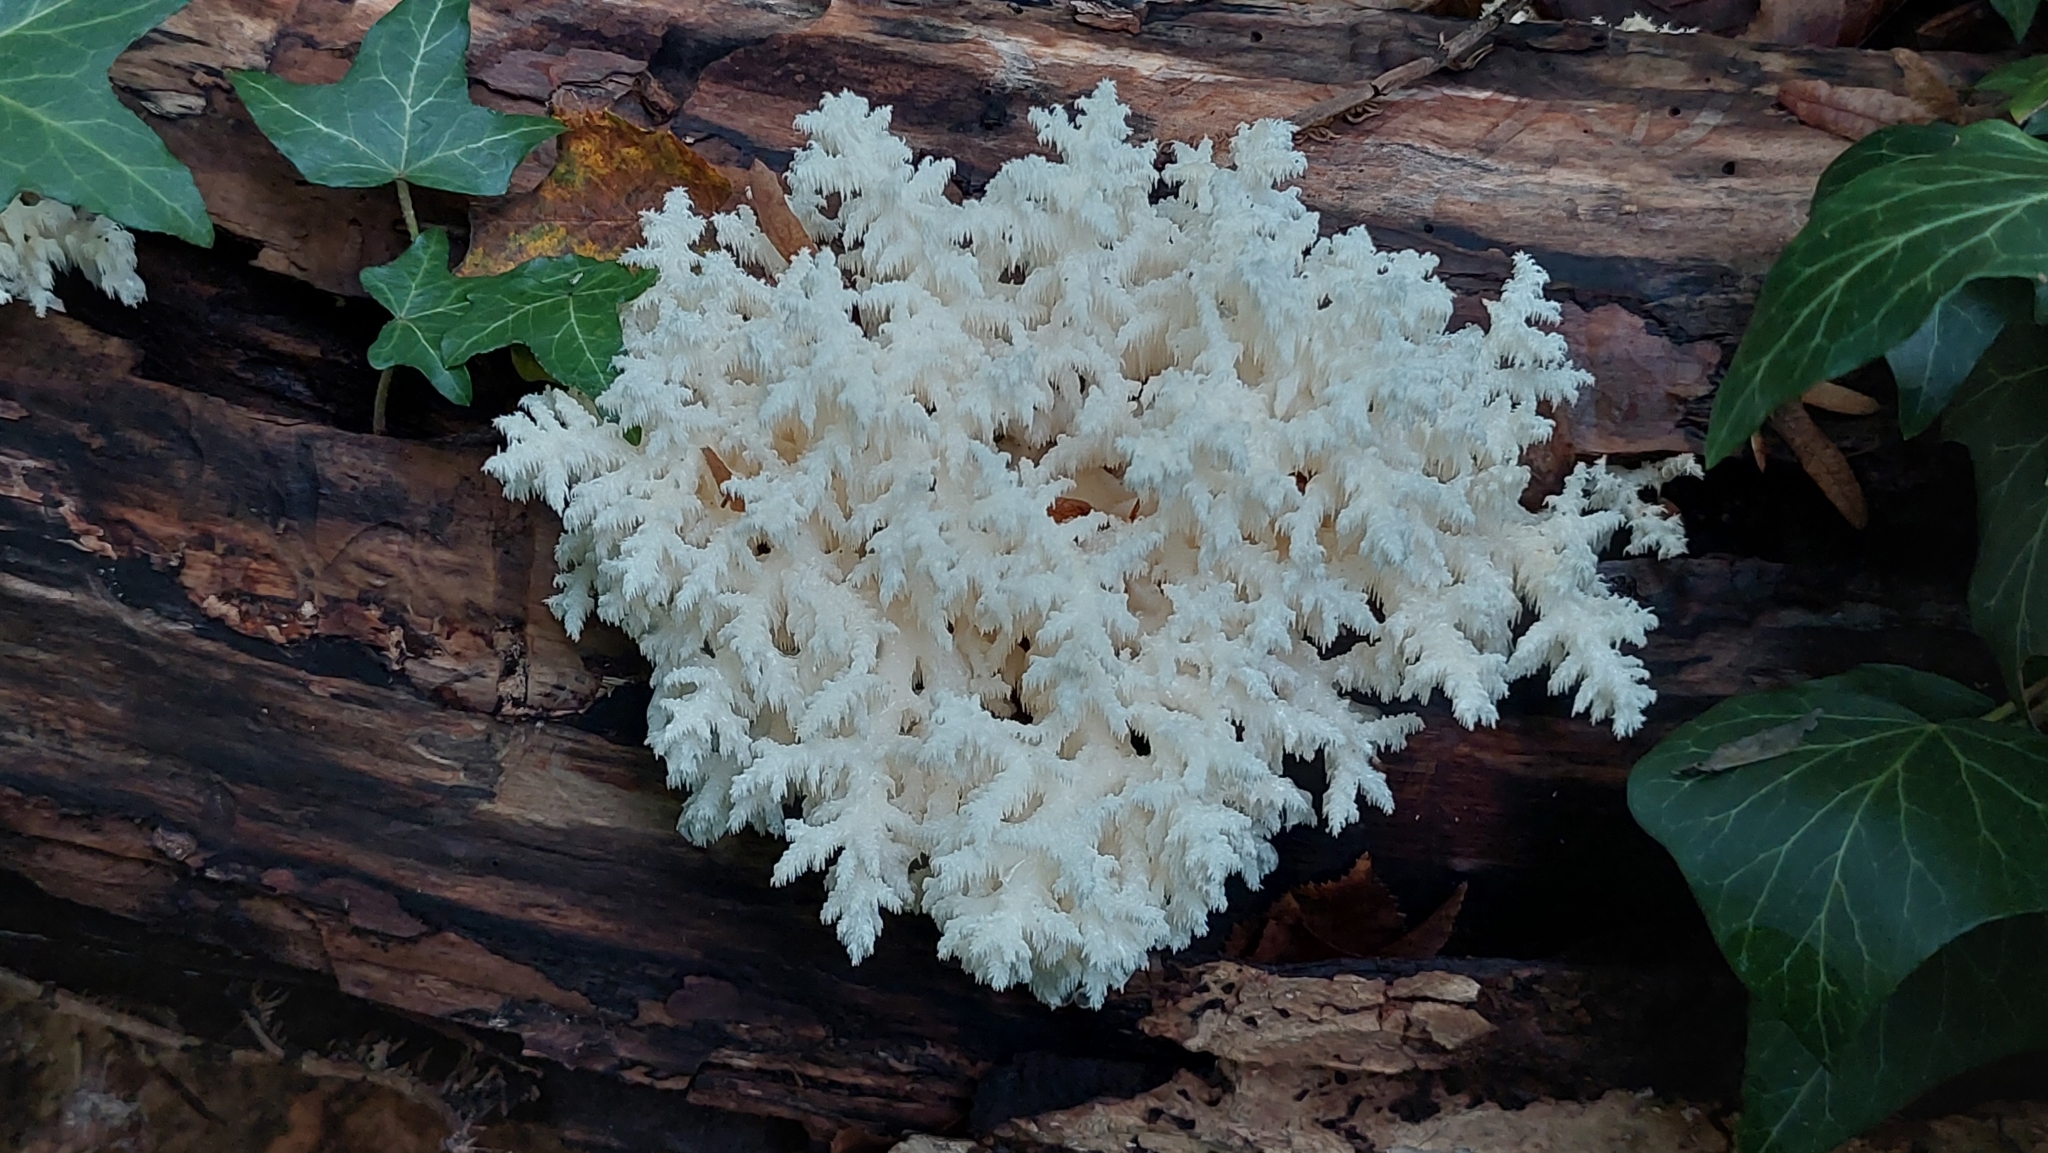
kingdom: Fungi
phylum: Basidiomycota
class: Agaricomycetes
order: Russulales
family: Hericiaceae
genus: Hericium
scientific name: Hericium coralloides
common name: Coral tooth
